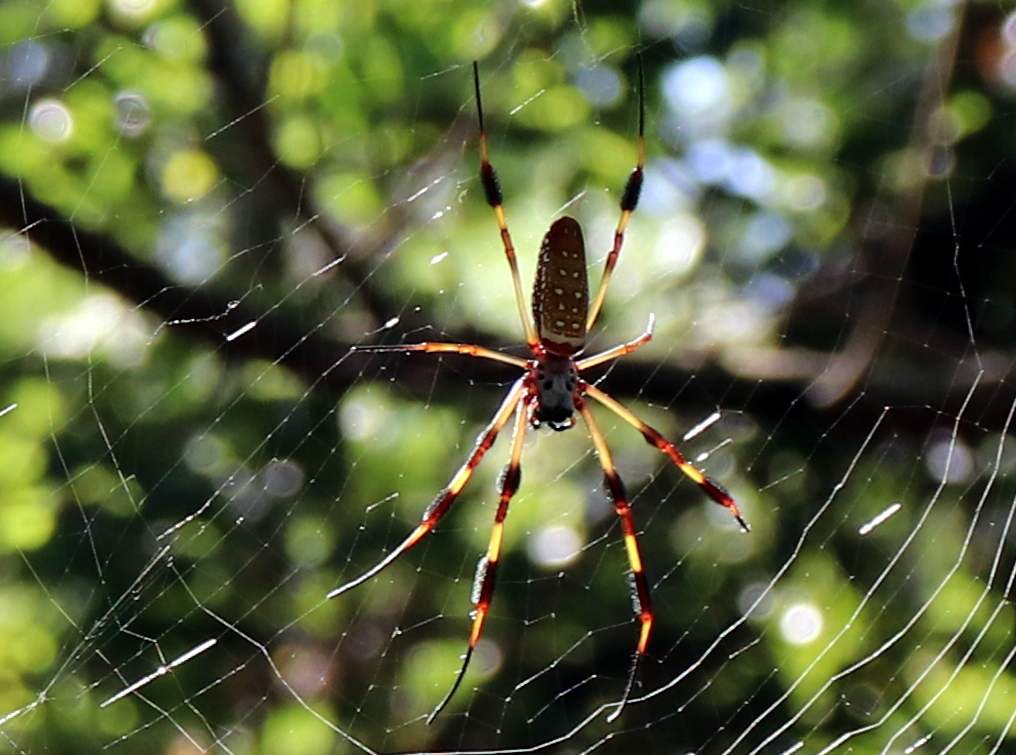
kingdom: Animalia
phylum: Arthropoda
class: Arachnida
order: Araneae
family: Araneidae
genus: Trichonephila
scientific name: Trichonephila clavipes
